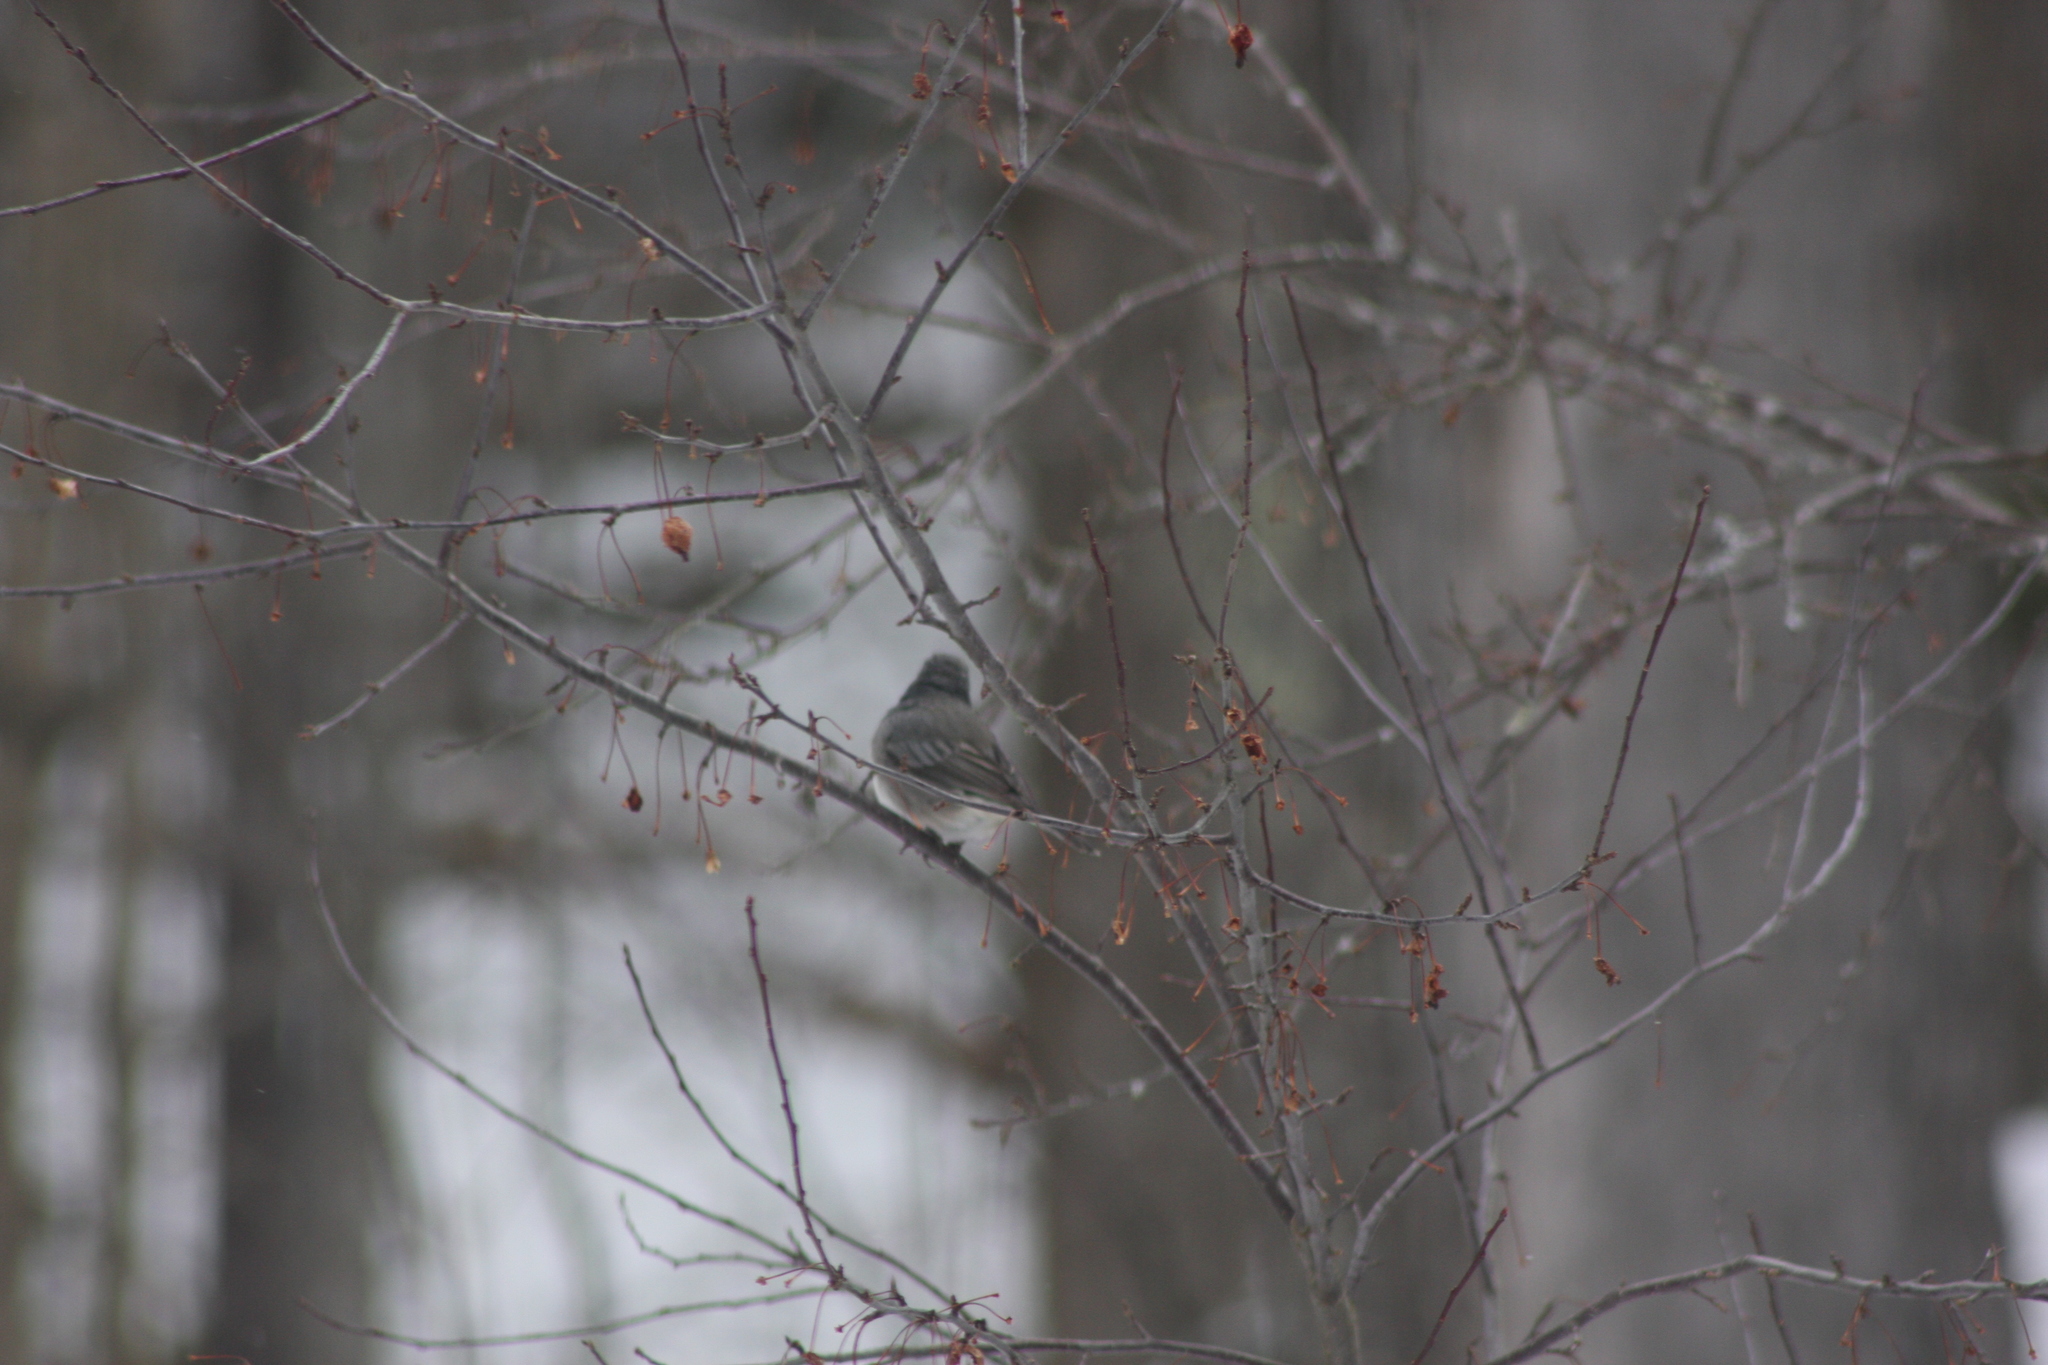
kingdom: Animalia
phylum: Chordata
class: Aves
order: Passeriformes
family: Passerellidae
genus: Junco
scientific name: Junco hyemalis
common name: Dark-eyed junco
